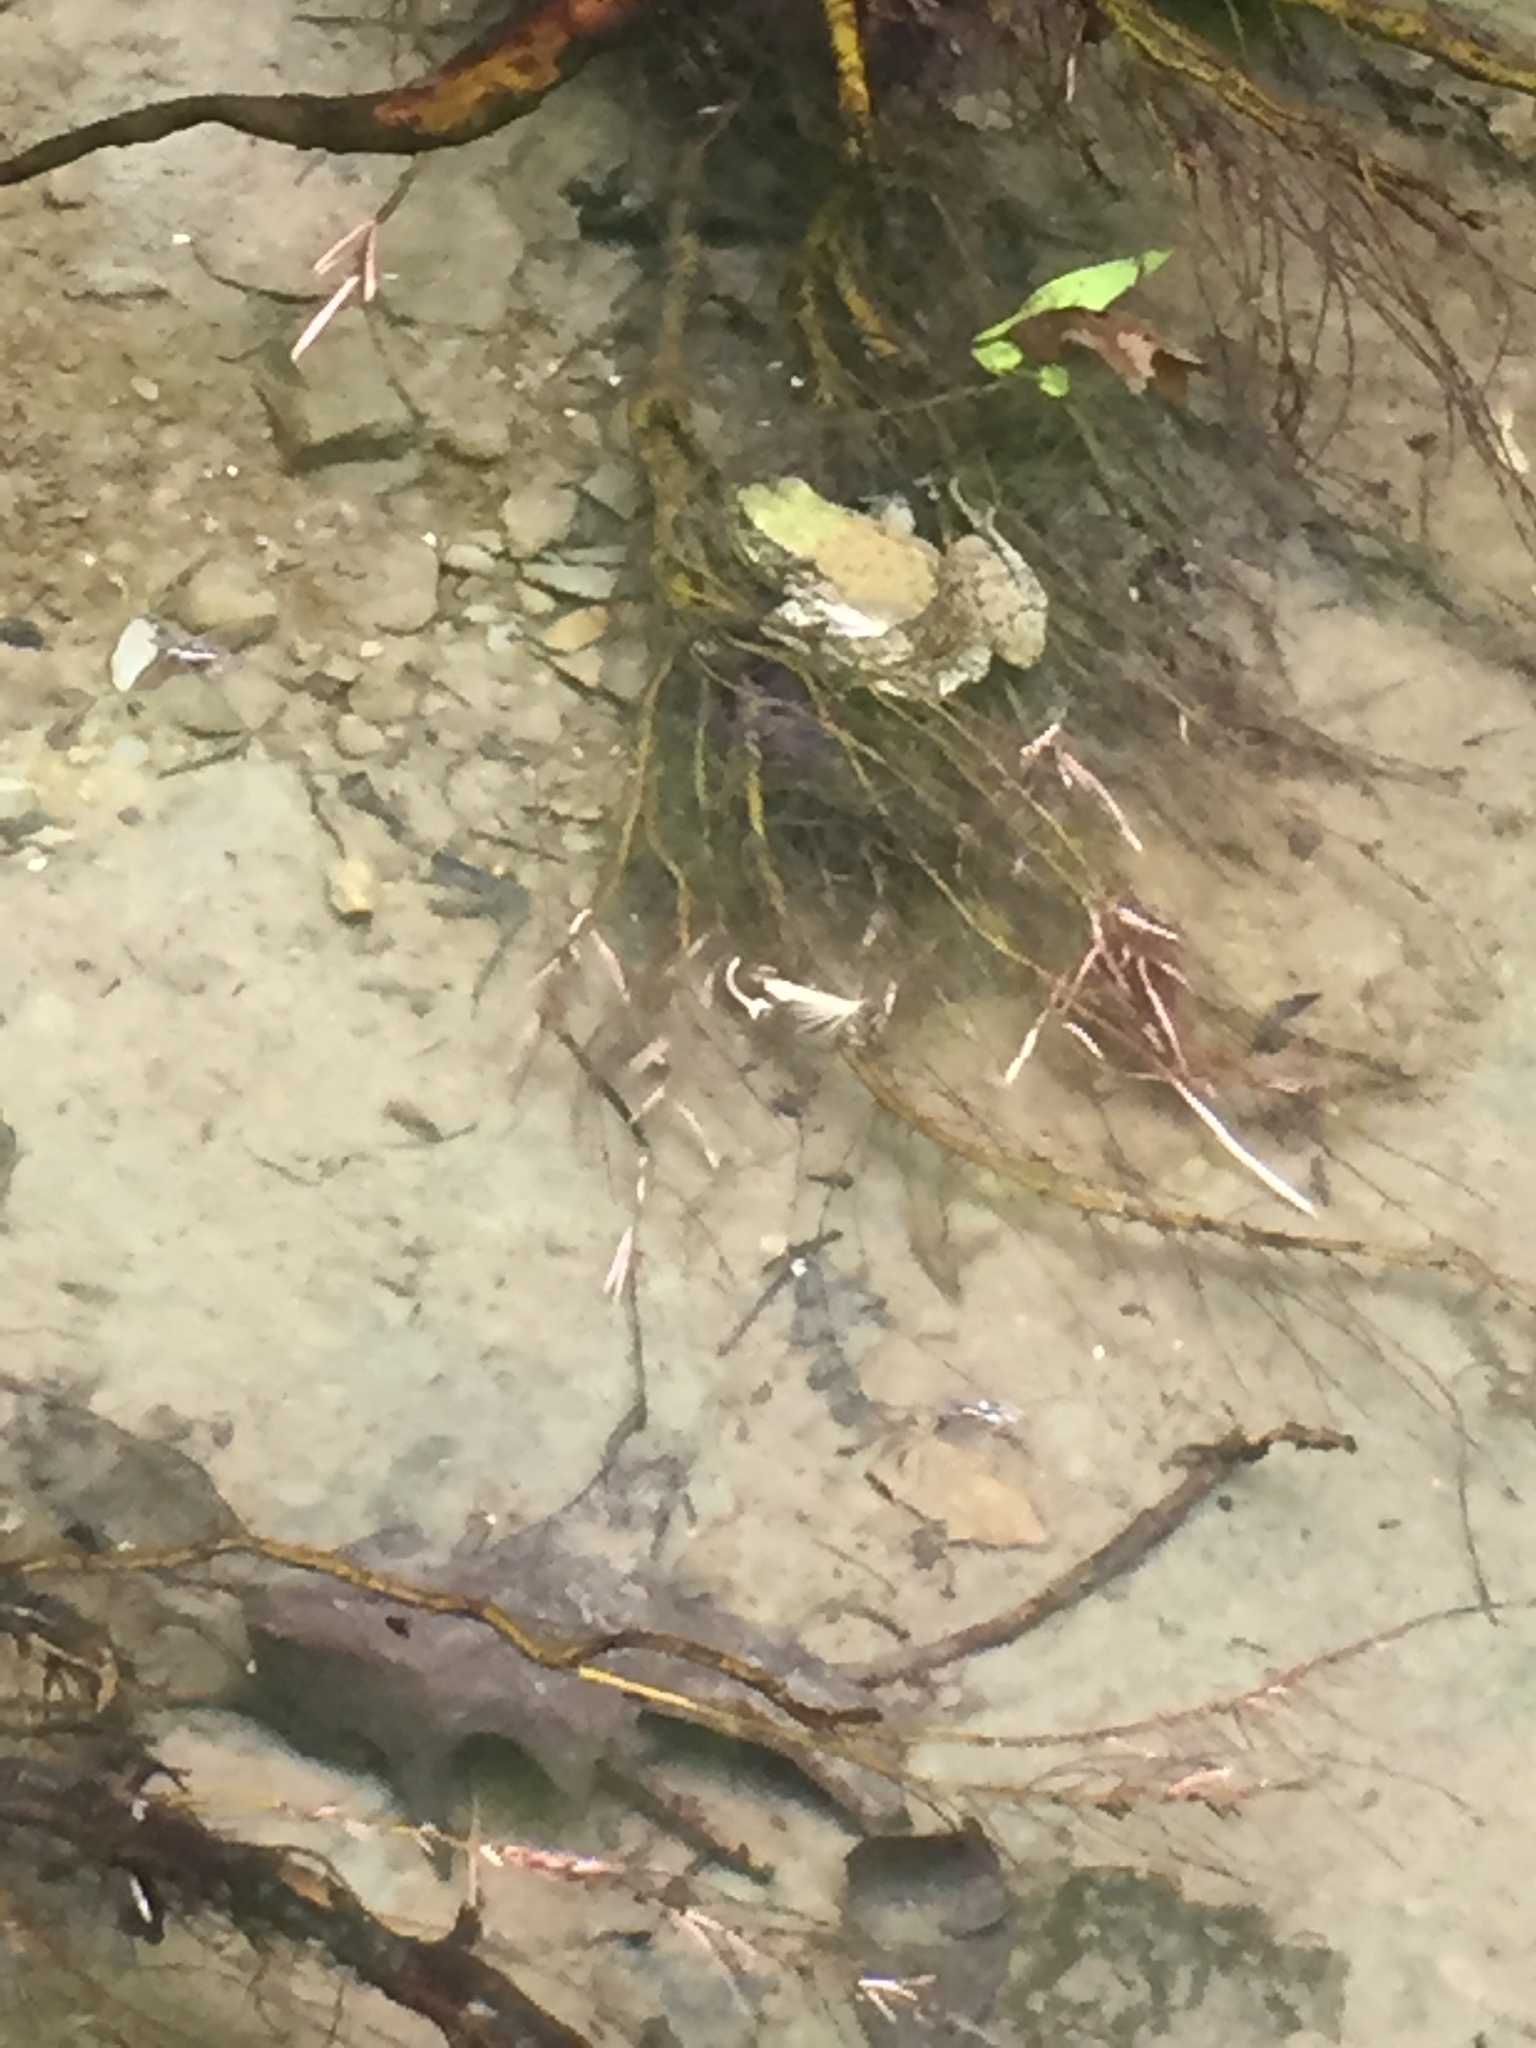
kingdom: Animalia
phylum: Chordata
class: Amphibia
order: Anura
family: Ranidae
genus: Lithobates
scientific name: Lithobates clamitans
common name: Green frog
